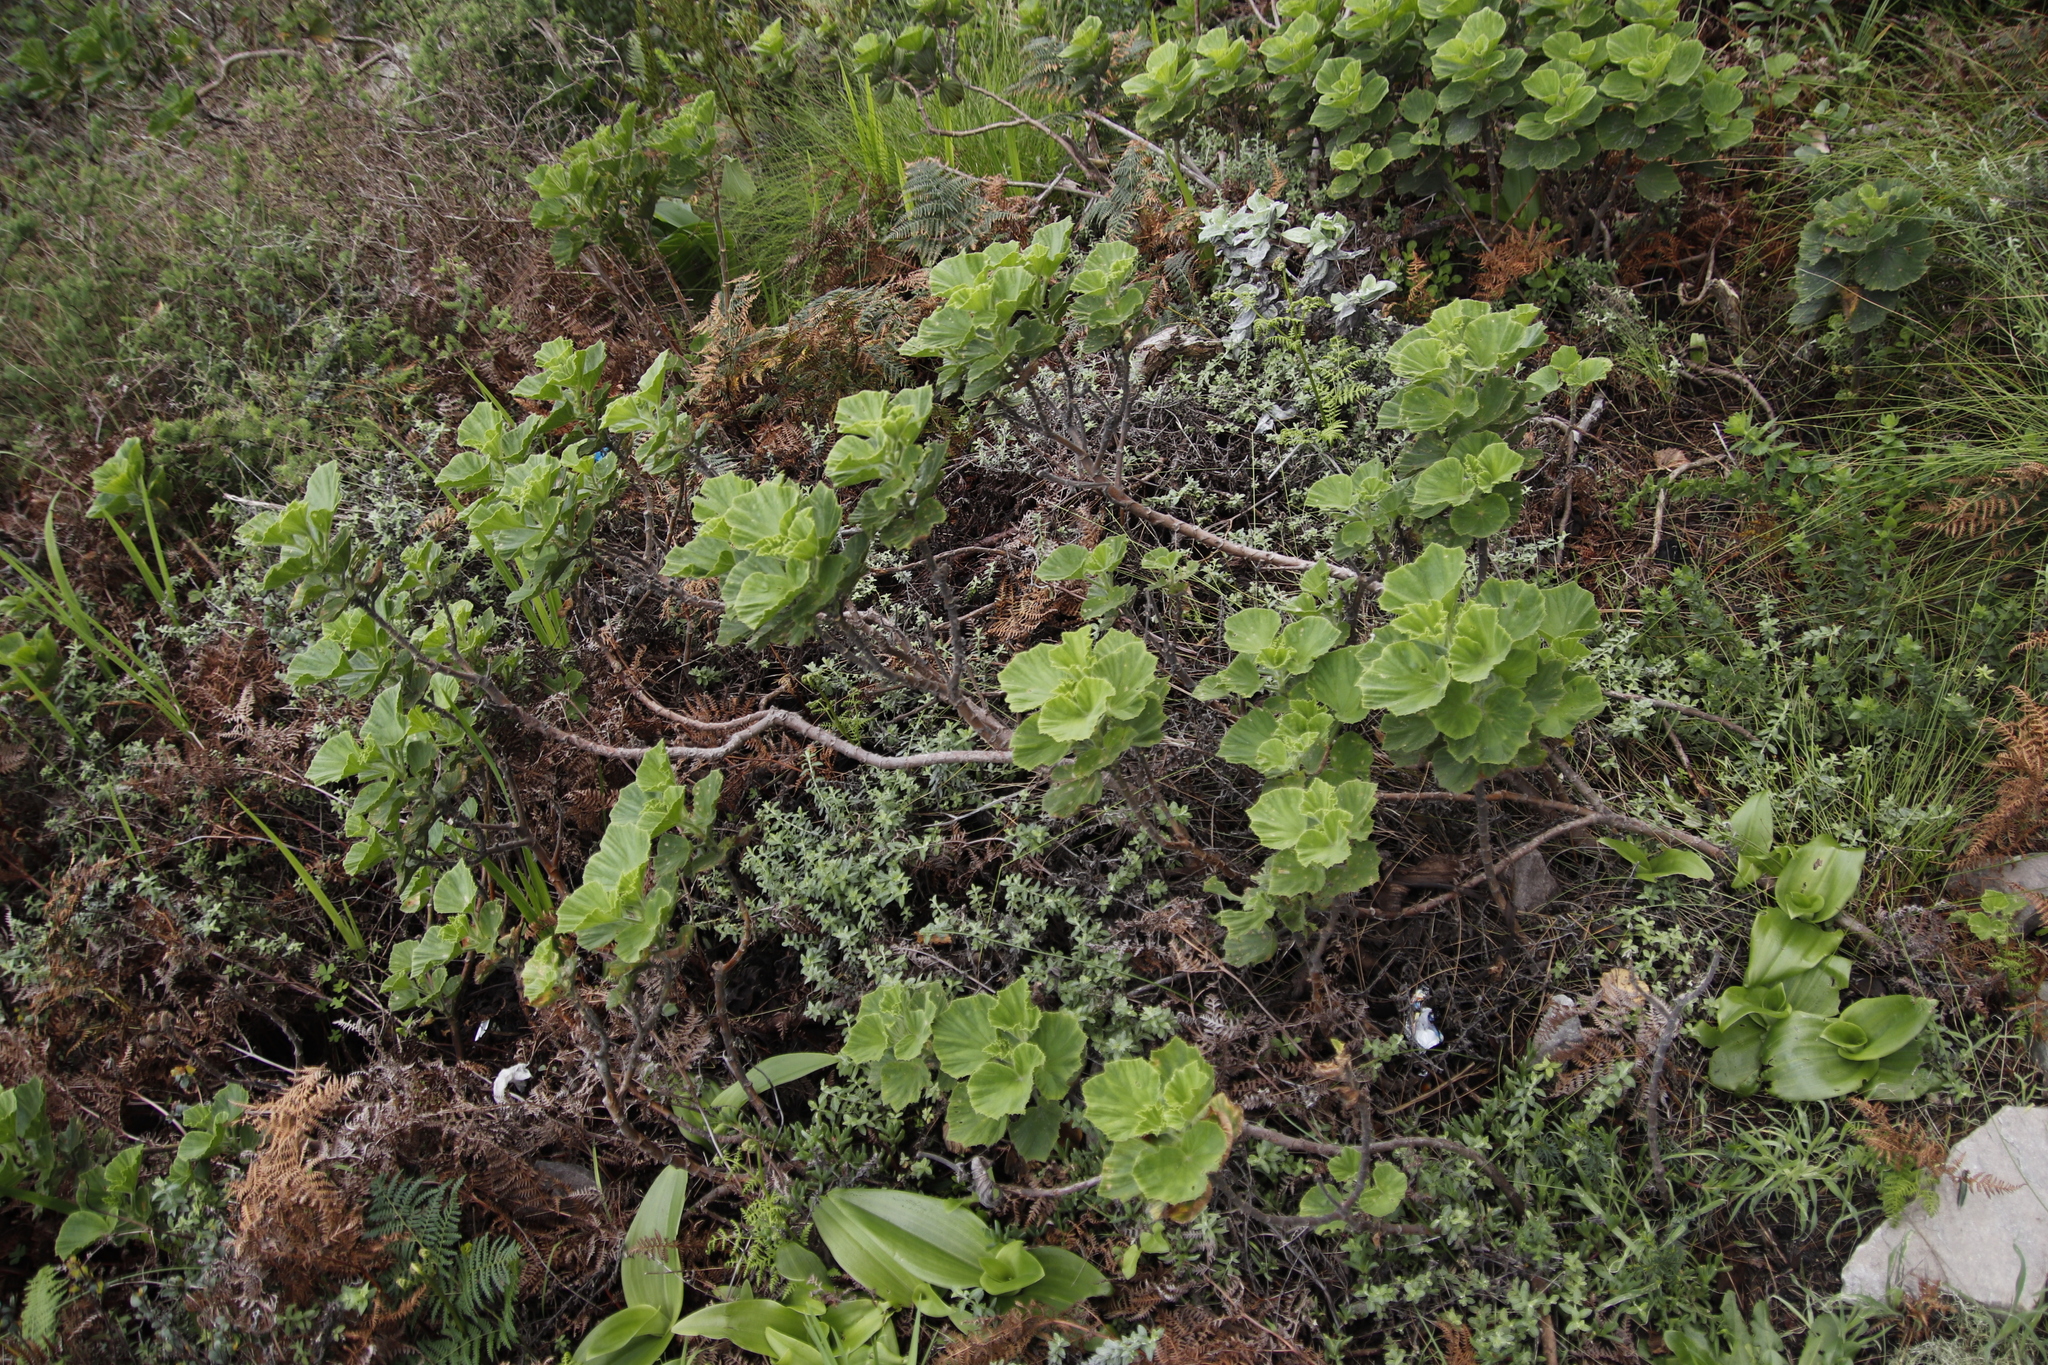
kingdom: Plantae
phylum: Tracheophyta
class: Magnoliopsida
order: Geraniales
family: Geraniaceae
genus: Pelargonium
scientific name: Pelargonium cucullatum
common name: Tree pelargonium
